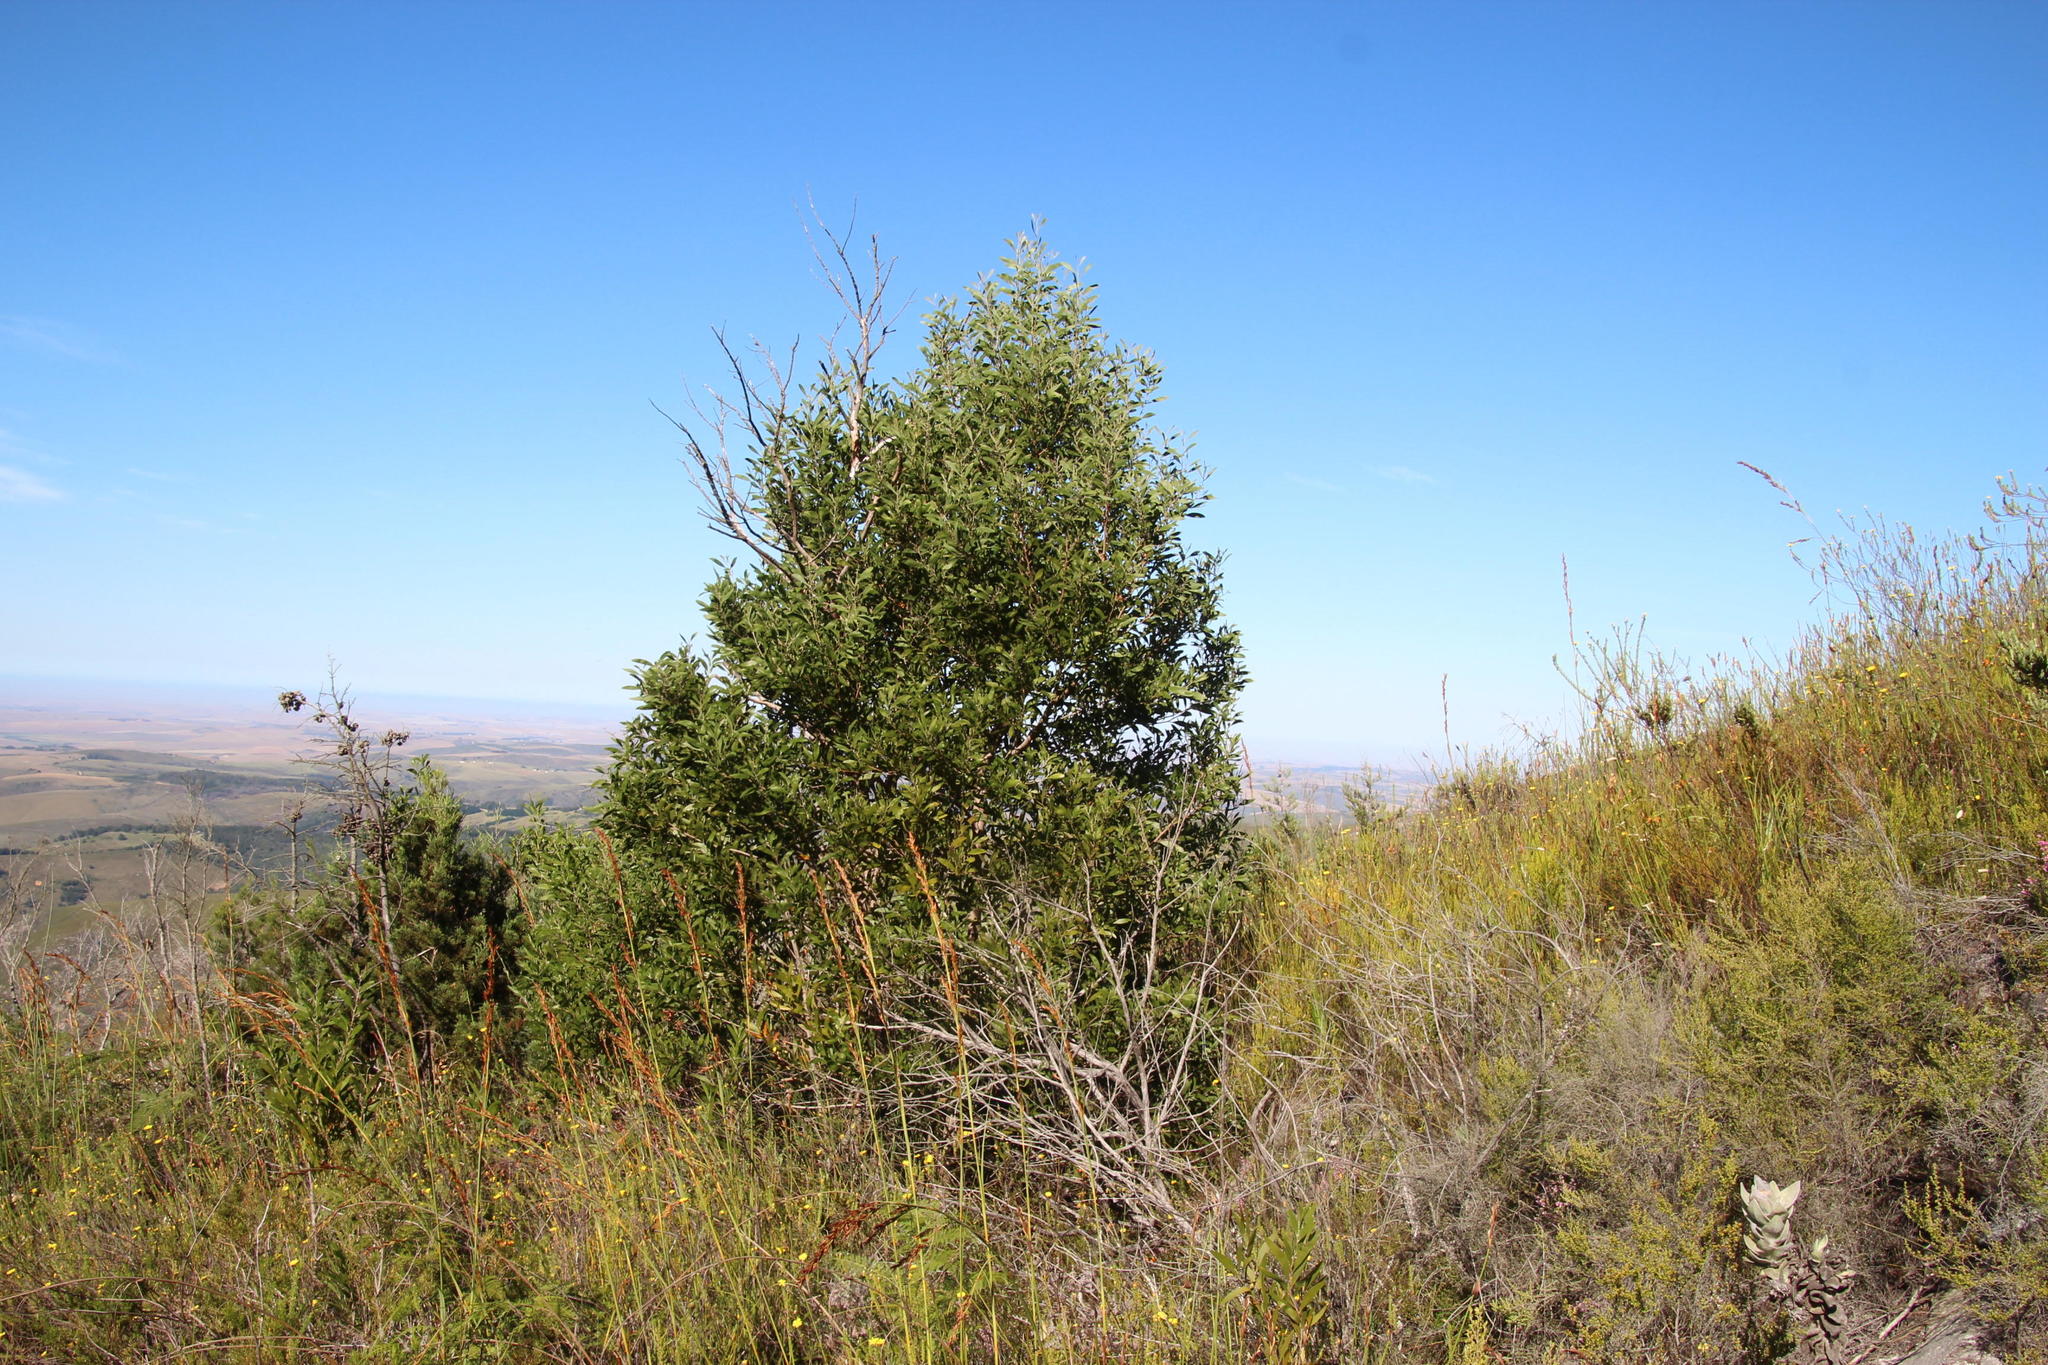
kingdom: Plantae
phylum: Tracheophyta
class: Magnoliopsida
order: Fabales
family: Fabaceae
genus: Acacia
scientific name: Acacia melanoxylon
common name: Blackwood
